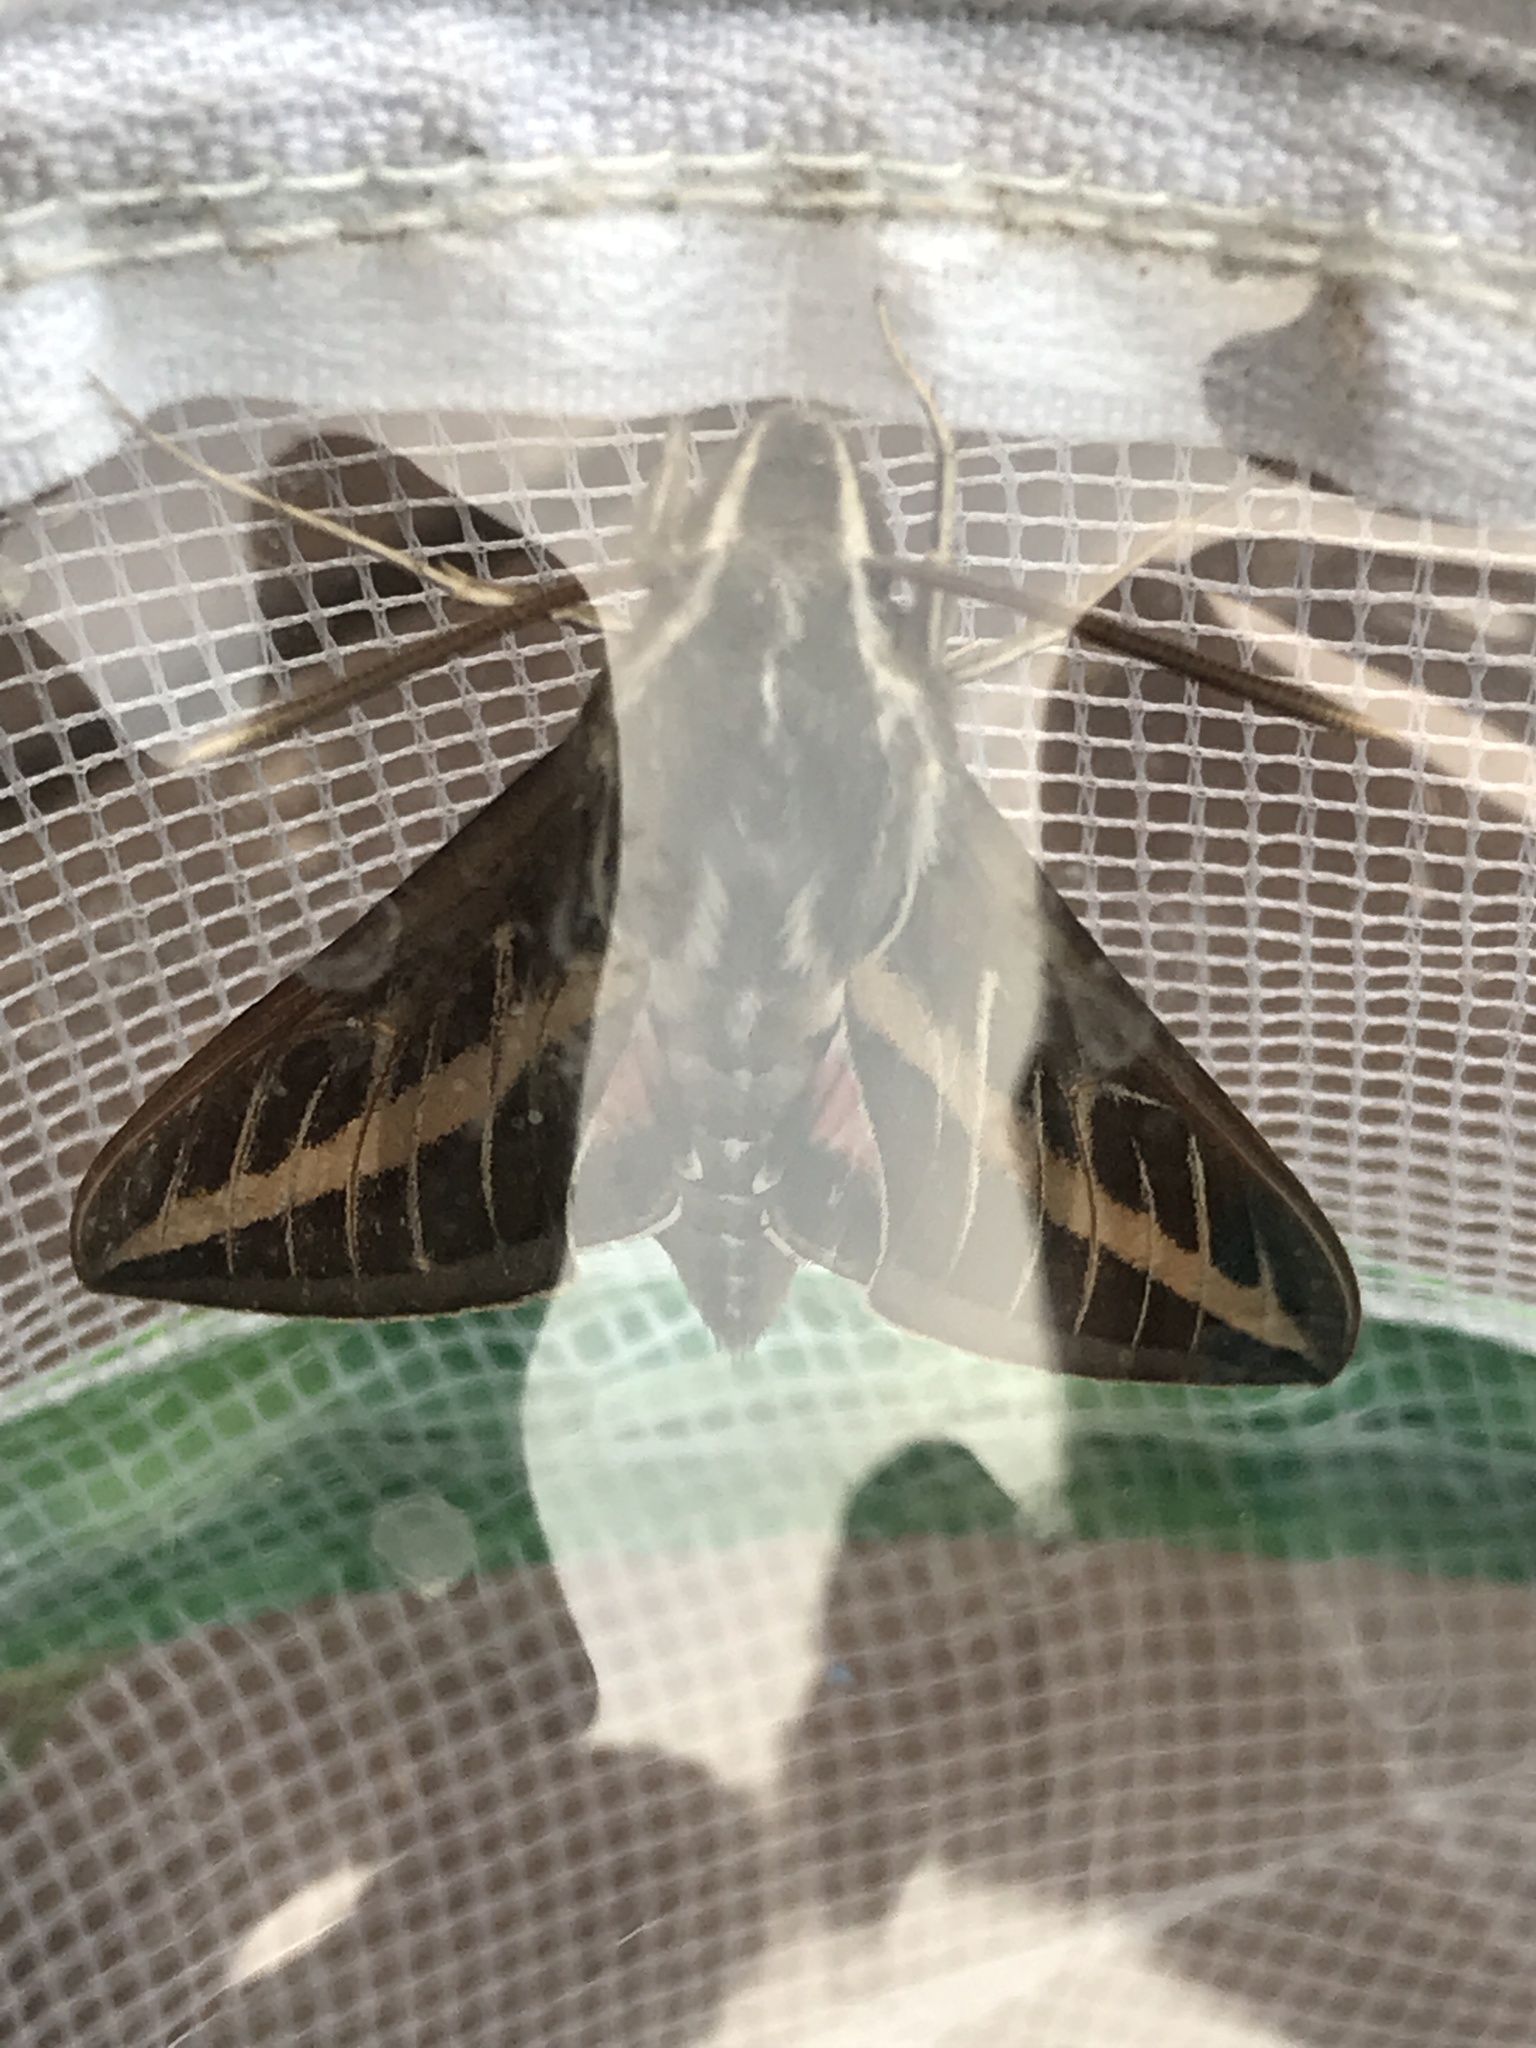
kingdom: Animalia
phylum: Arthropoda
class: Insecta
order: Lepidoptera
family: Sphingidae
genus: Hyles
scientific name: Hyles lineata
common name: White-lined sphinx
